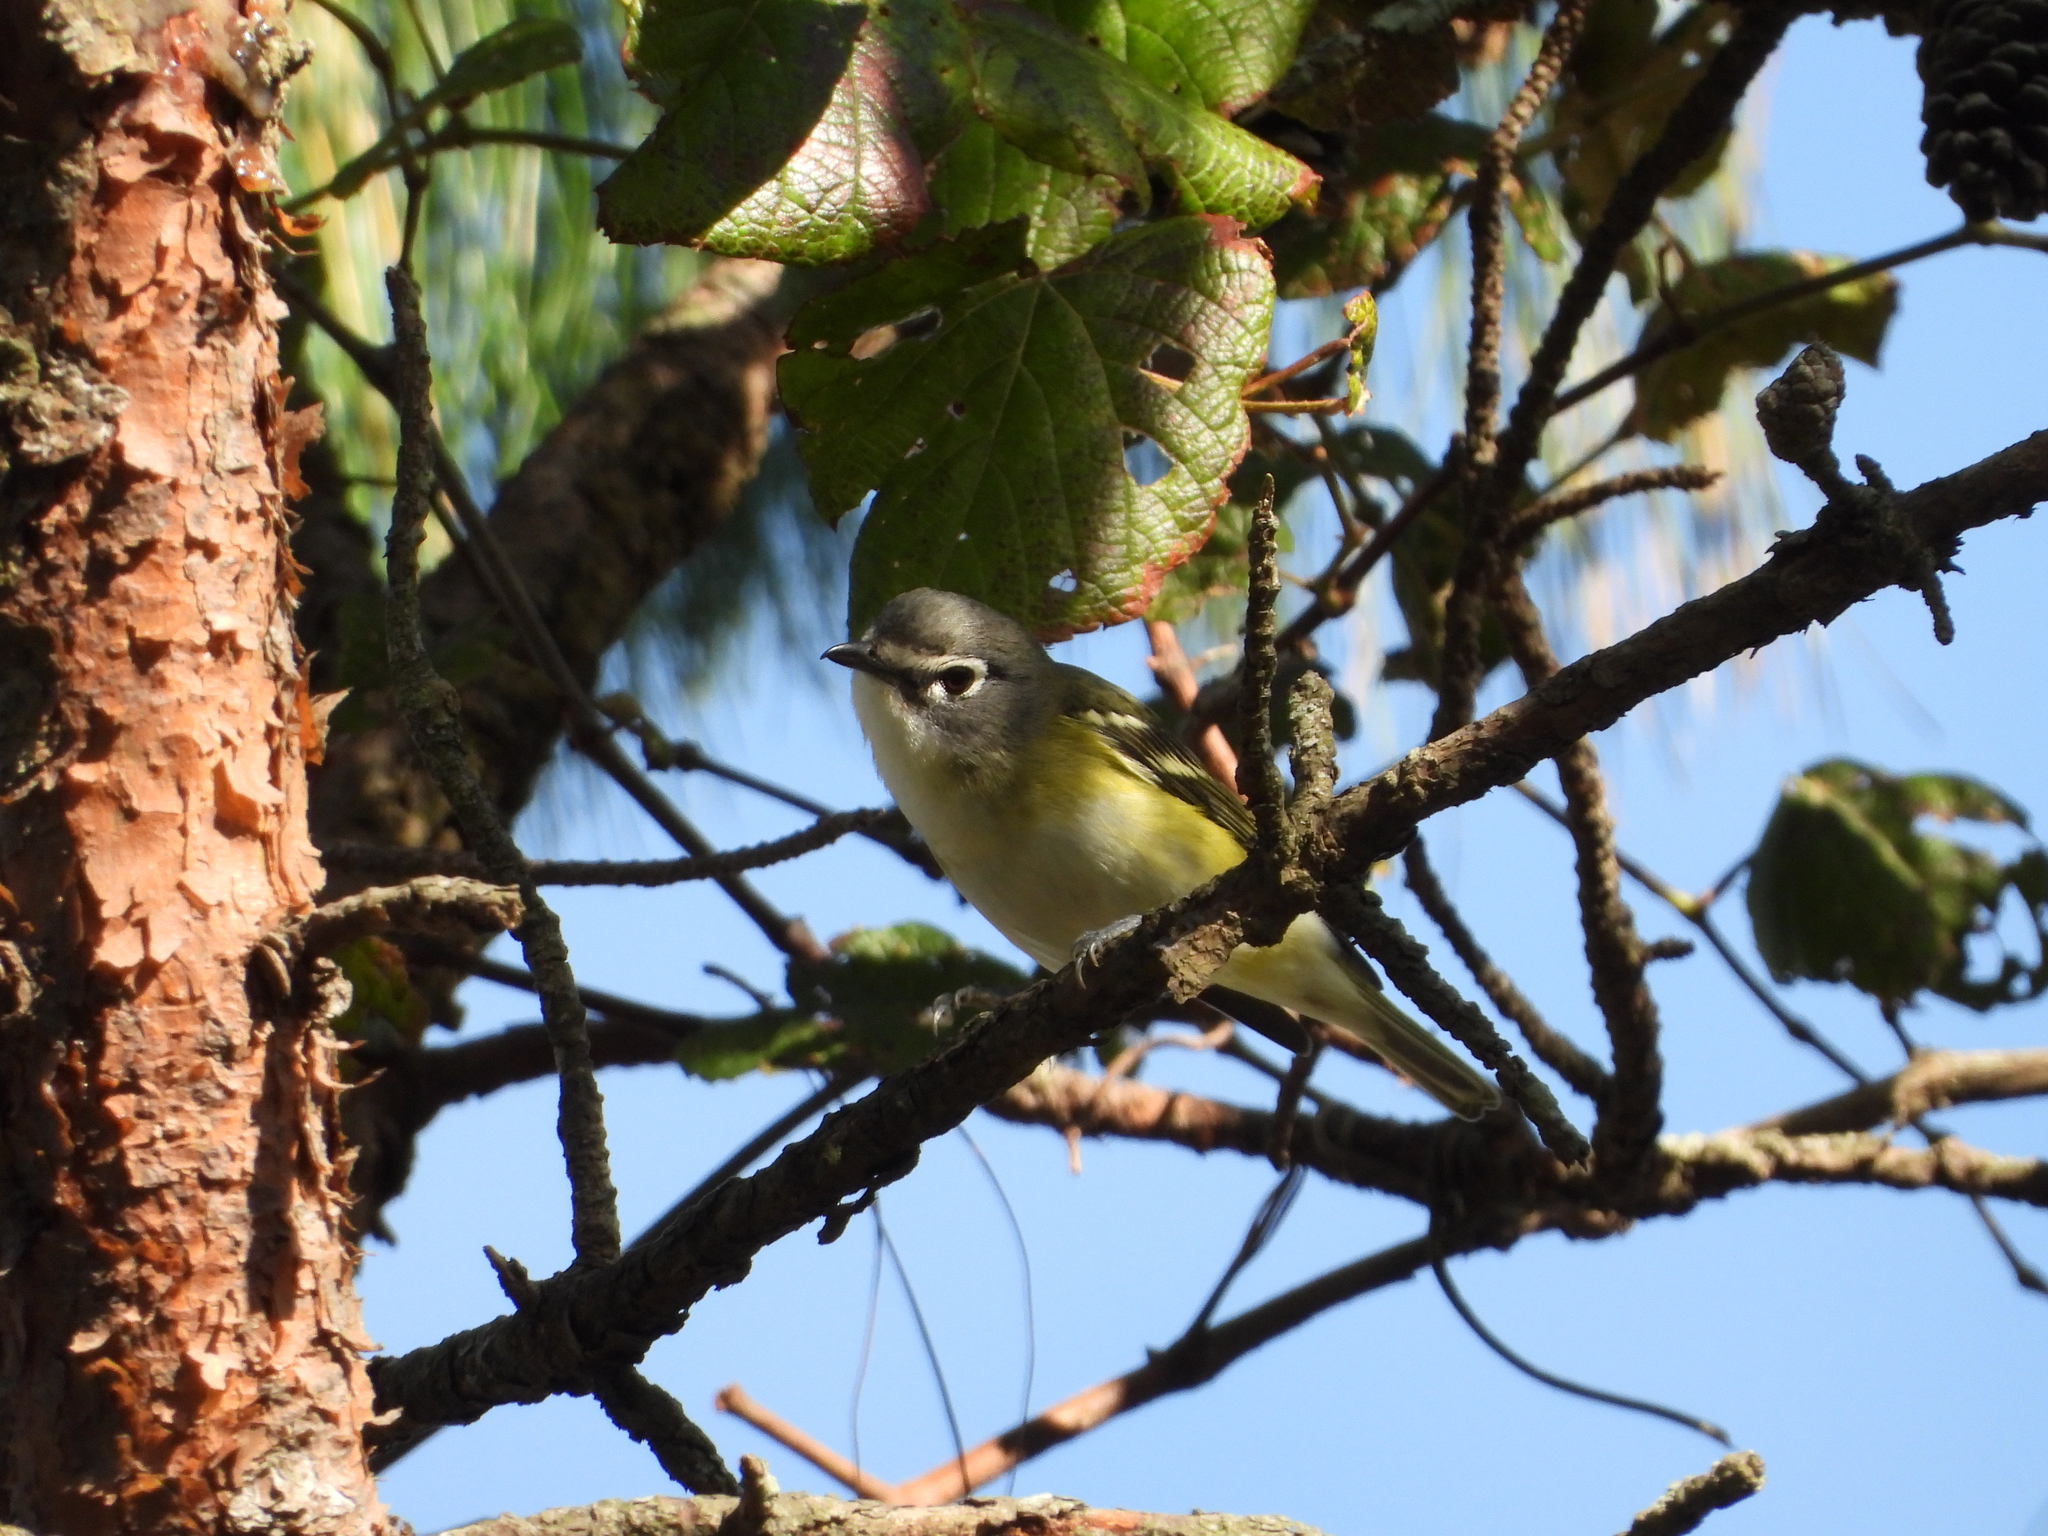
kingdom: Animalia
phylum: Chordata
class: Aves
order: Passeriformes
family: Vireonidae
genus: Vireo
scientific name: Vireo solitarius
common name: Blue-headed vireo
